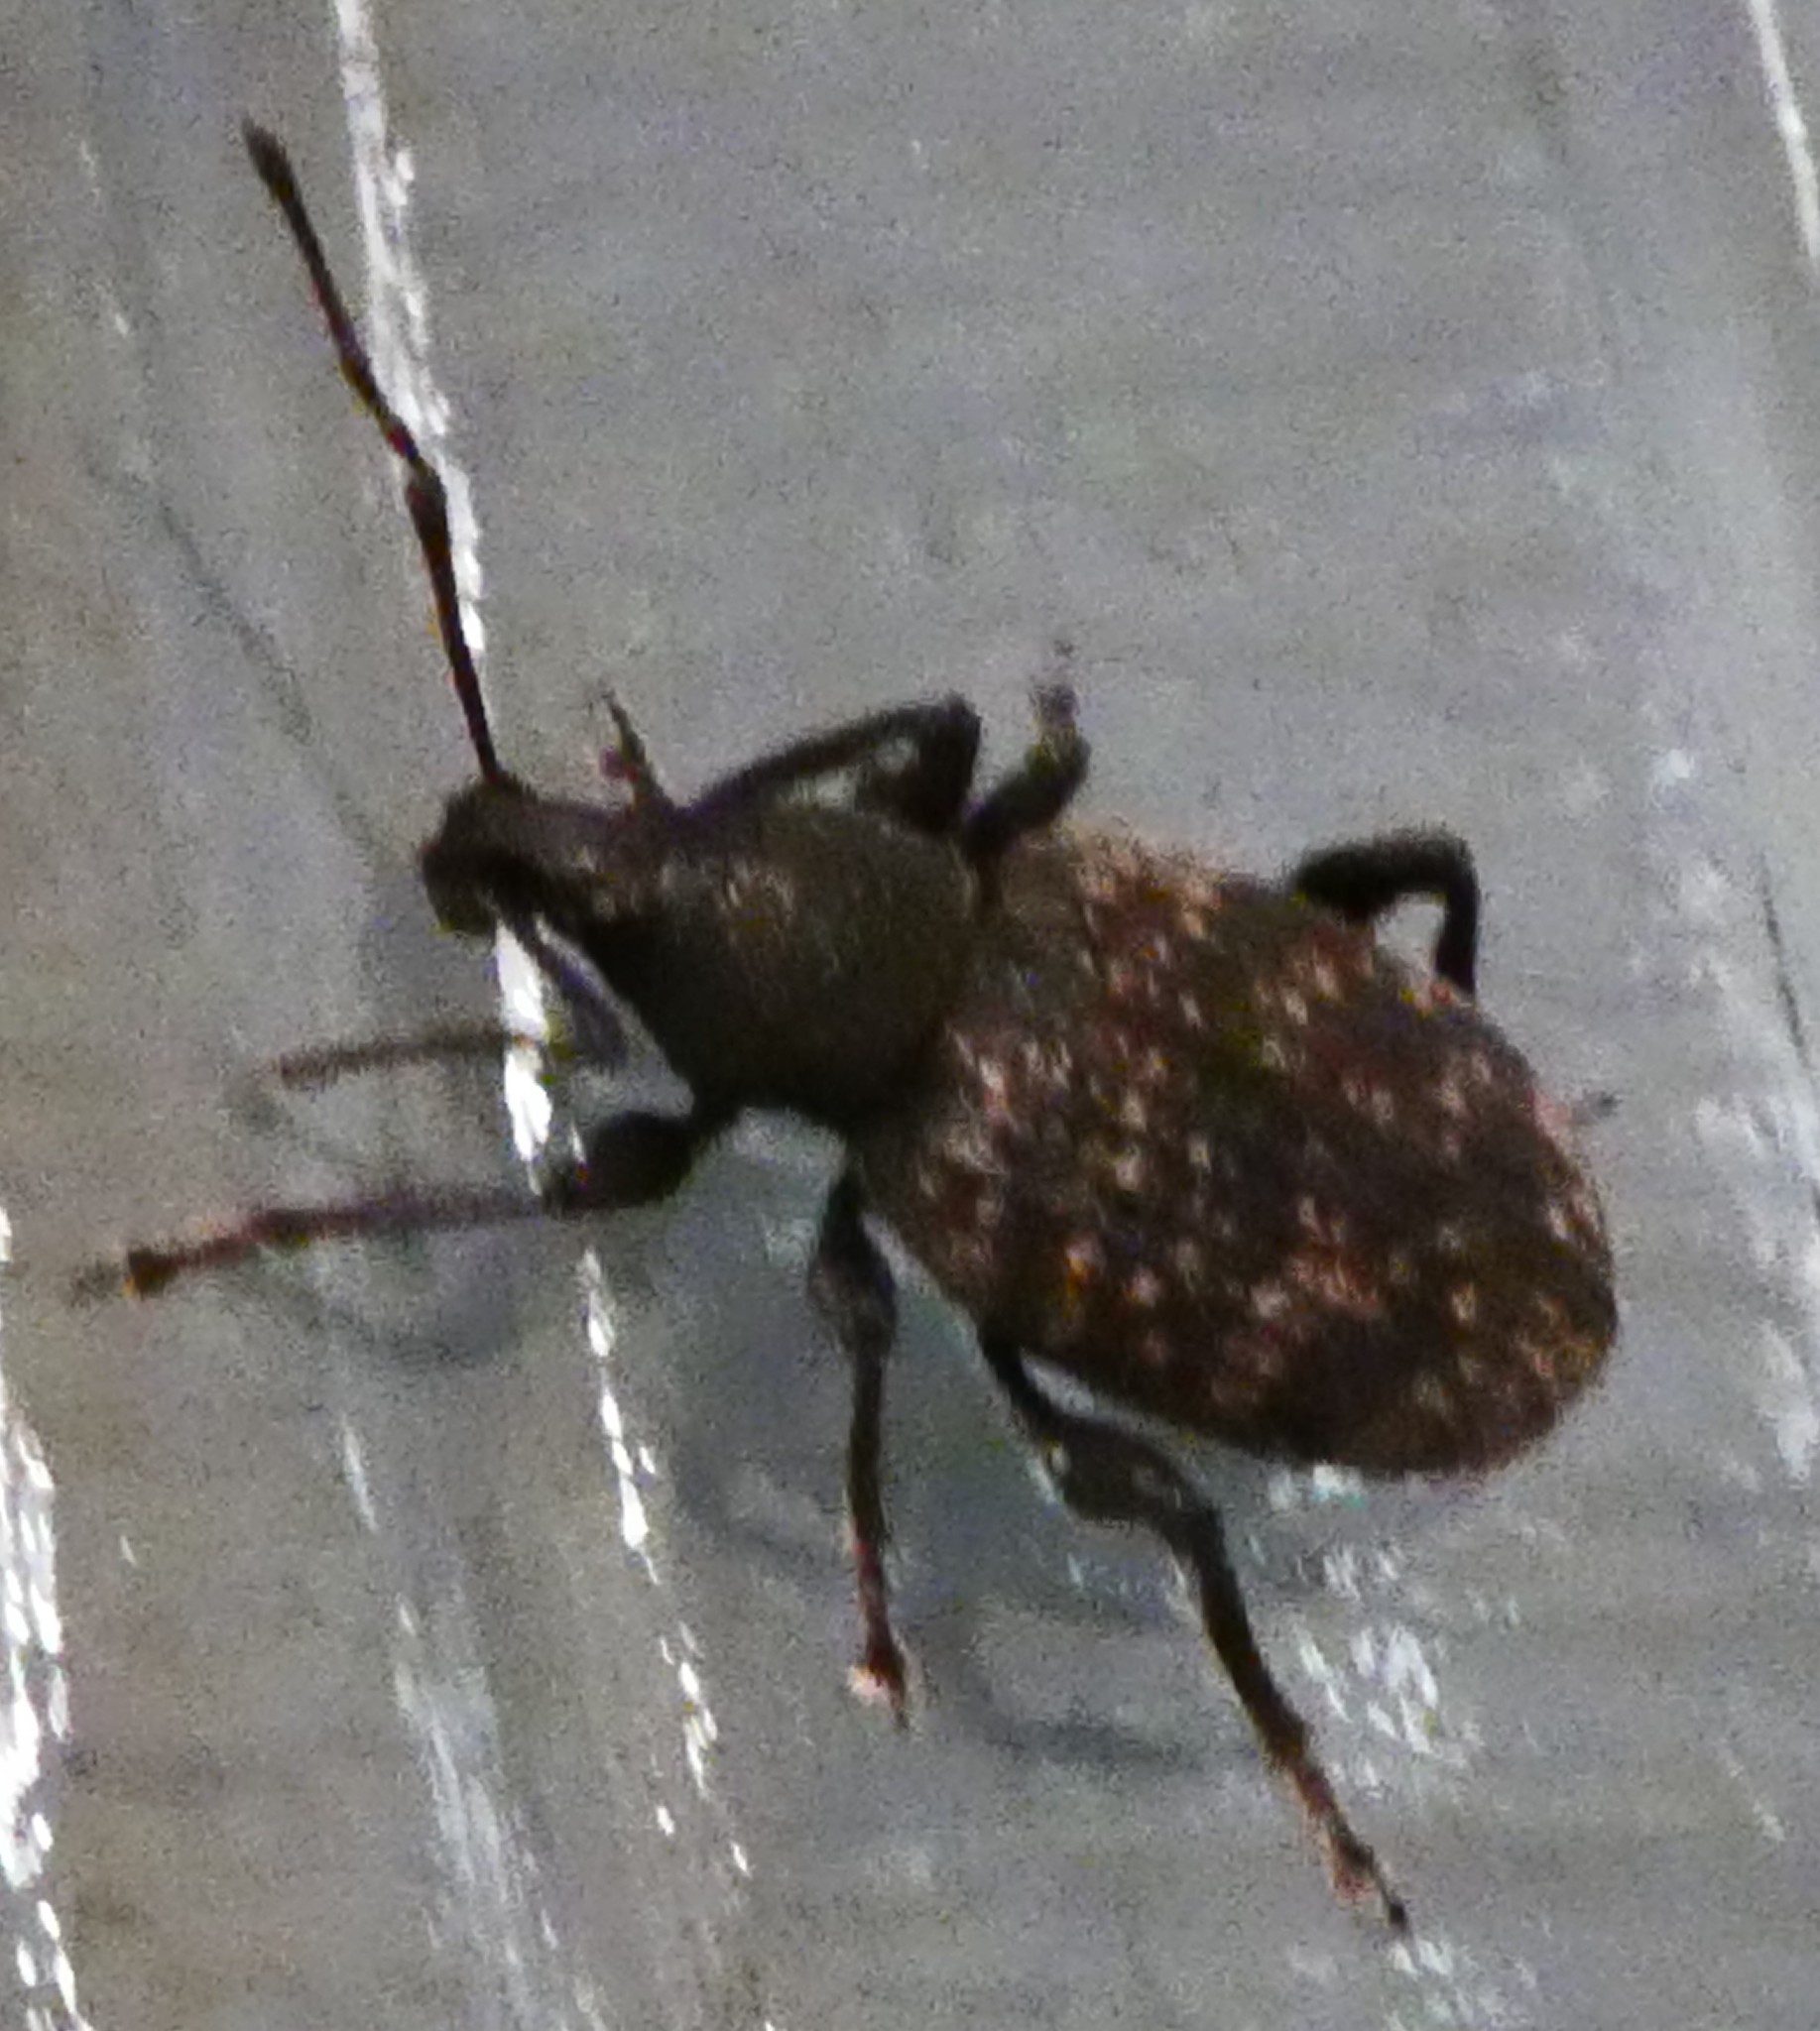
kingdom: Animalia
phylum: Arthropoda
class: Insecta
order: Coleoptera
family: Curculionidae
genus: Otiorhynchus
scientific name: Otiorhynchus sulcatus
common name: Black vine weevil
